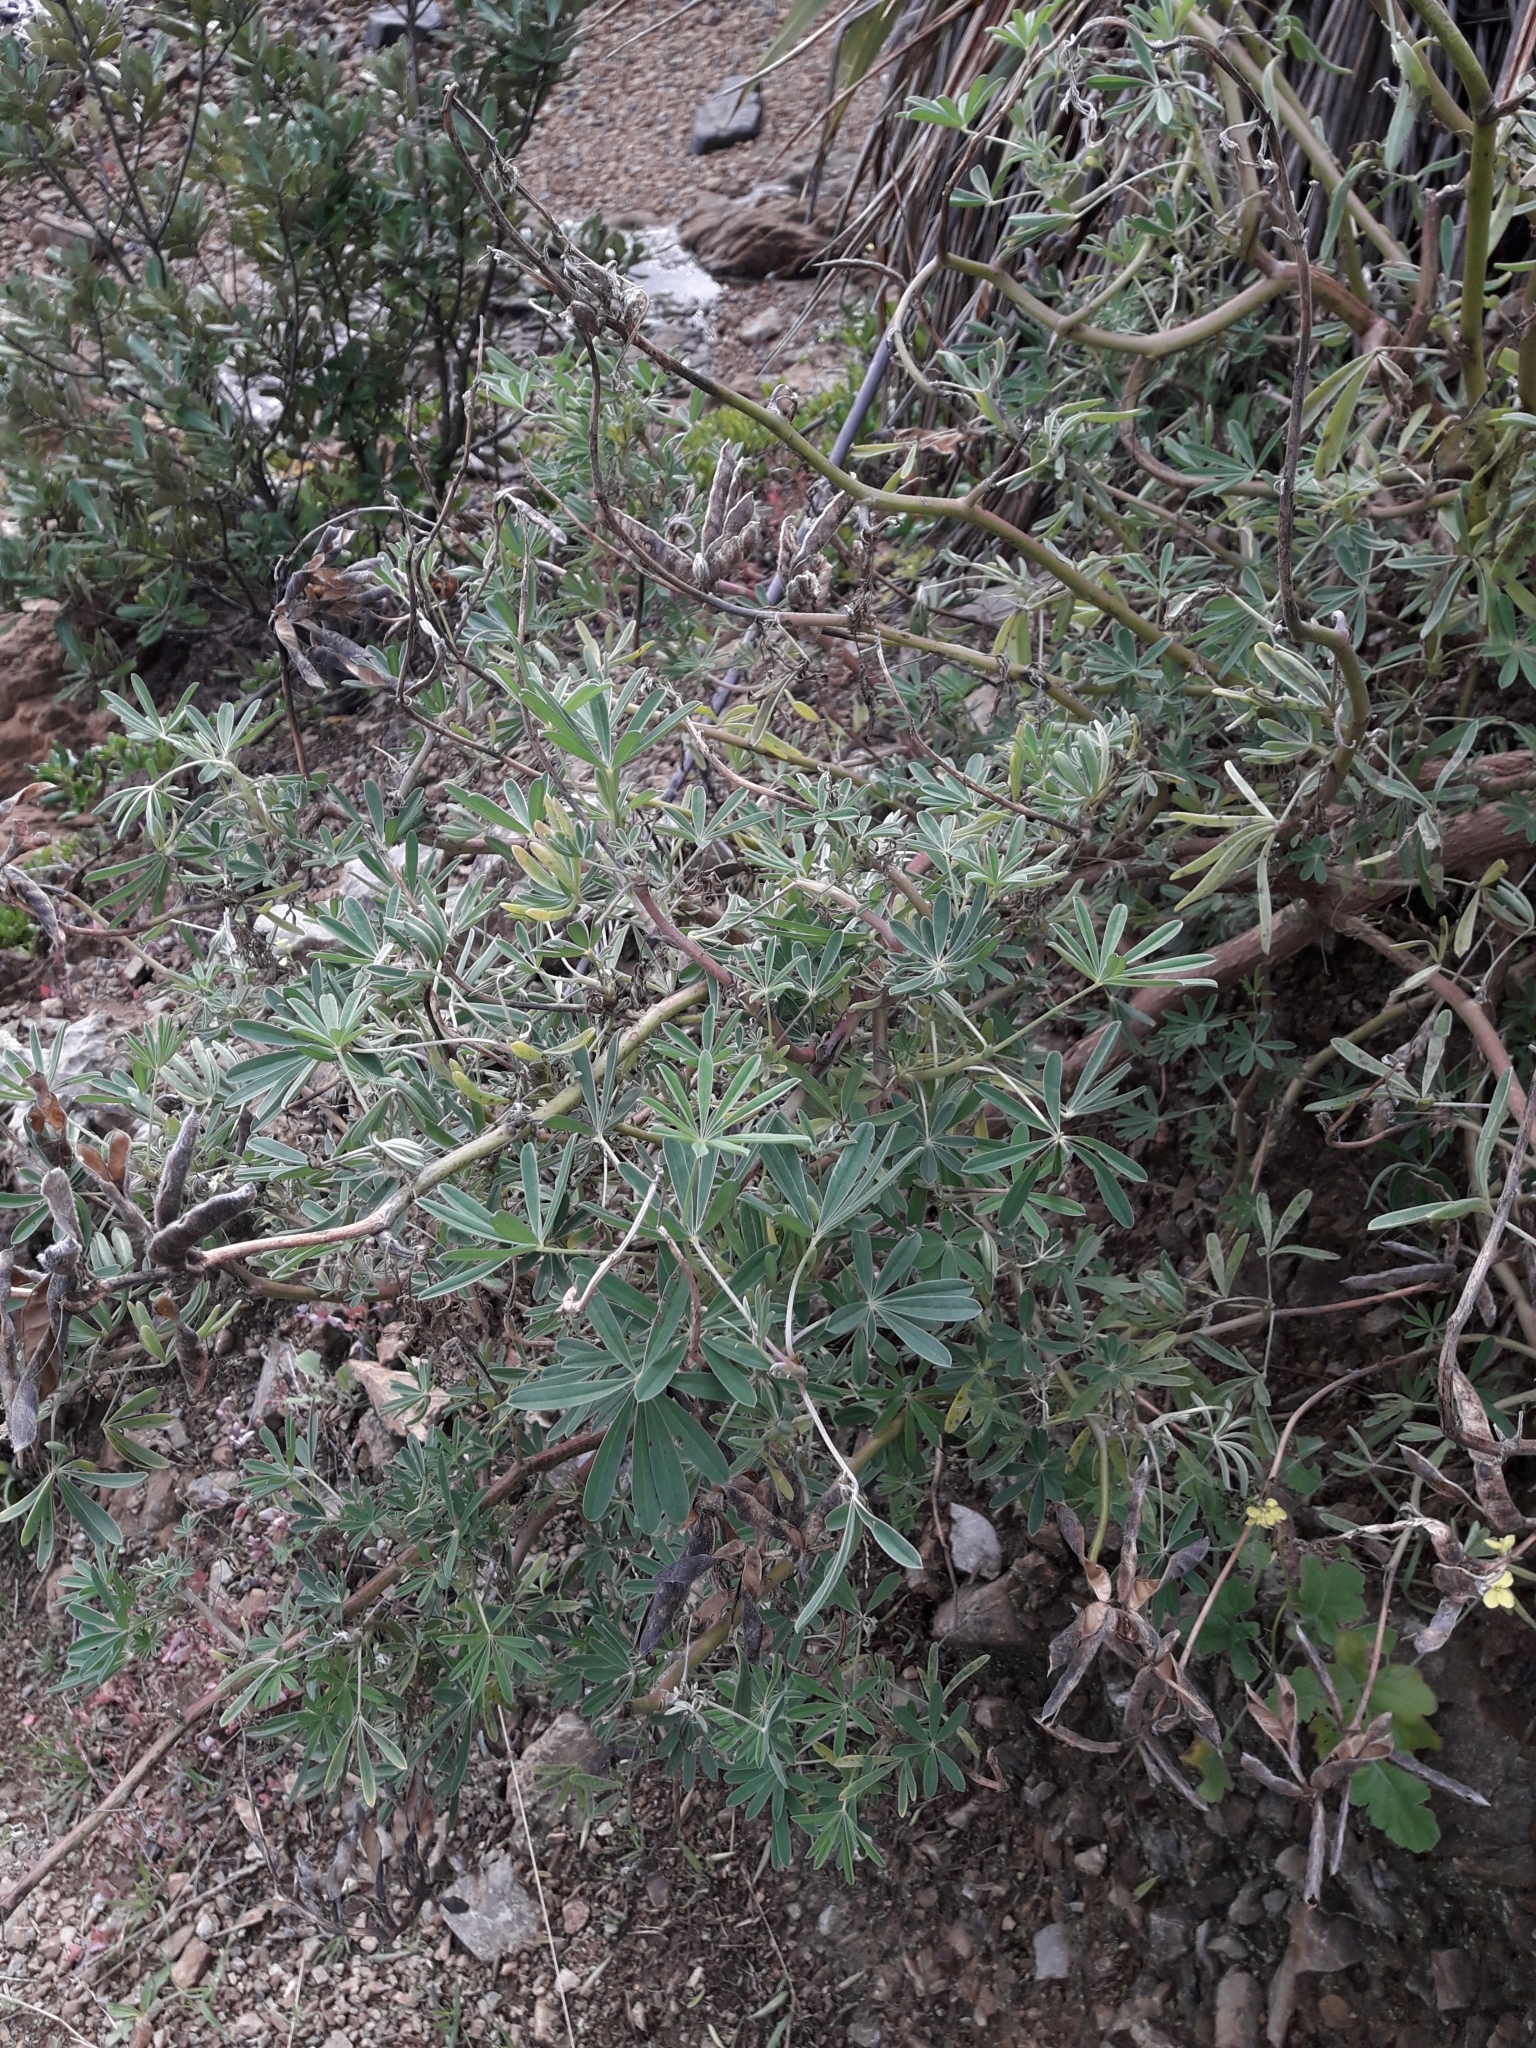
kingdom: Plantae
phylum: Tracheophyta
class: Magnoliopsida
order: Fabales
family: Fabaceae
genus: Lupinus
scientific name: Lupinus arboreus
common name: Yellow bush lupine
